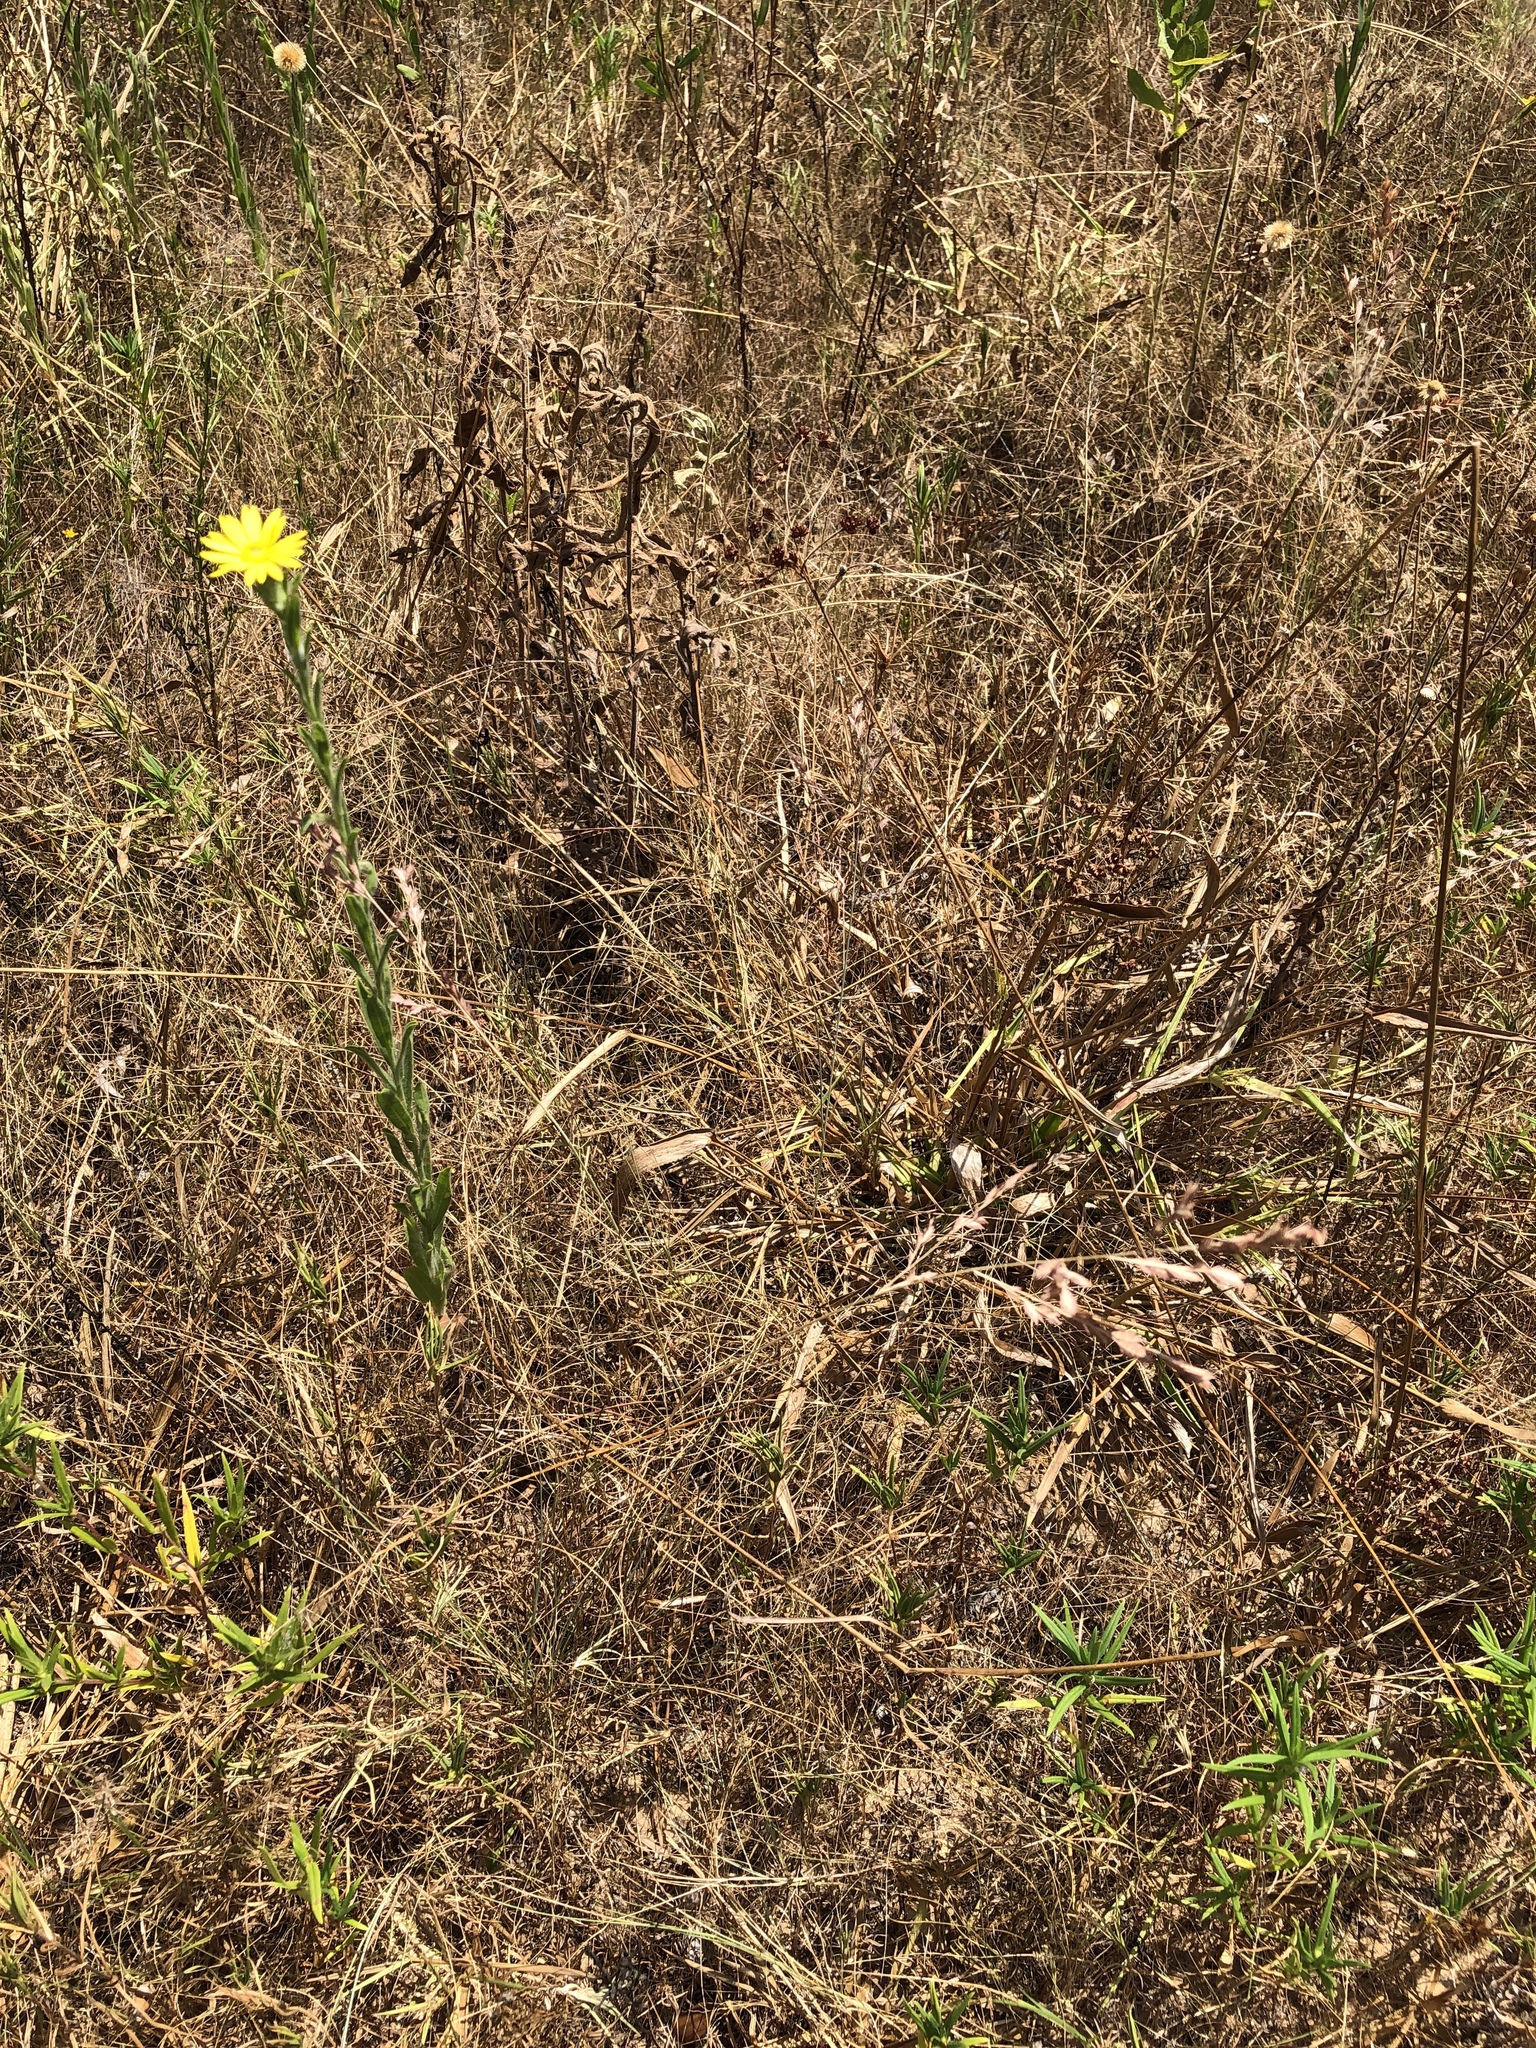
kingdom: Plantae
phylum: Tracheophyta
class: Liliopsida
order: Poales
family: Poaceae
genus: Eragrostis
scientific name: Eragrostis secundiflora
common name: Red love grass
